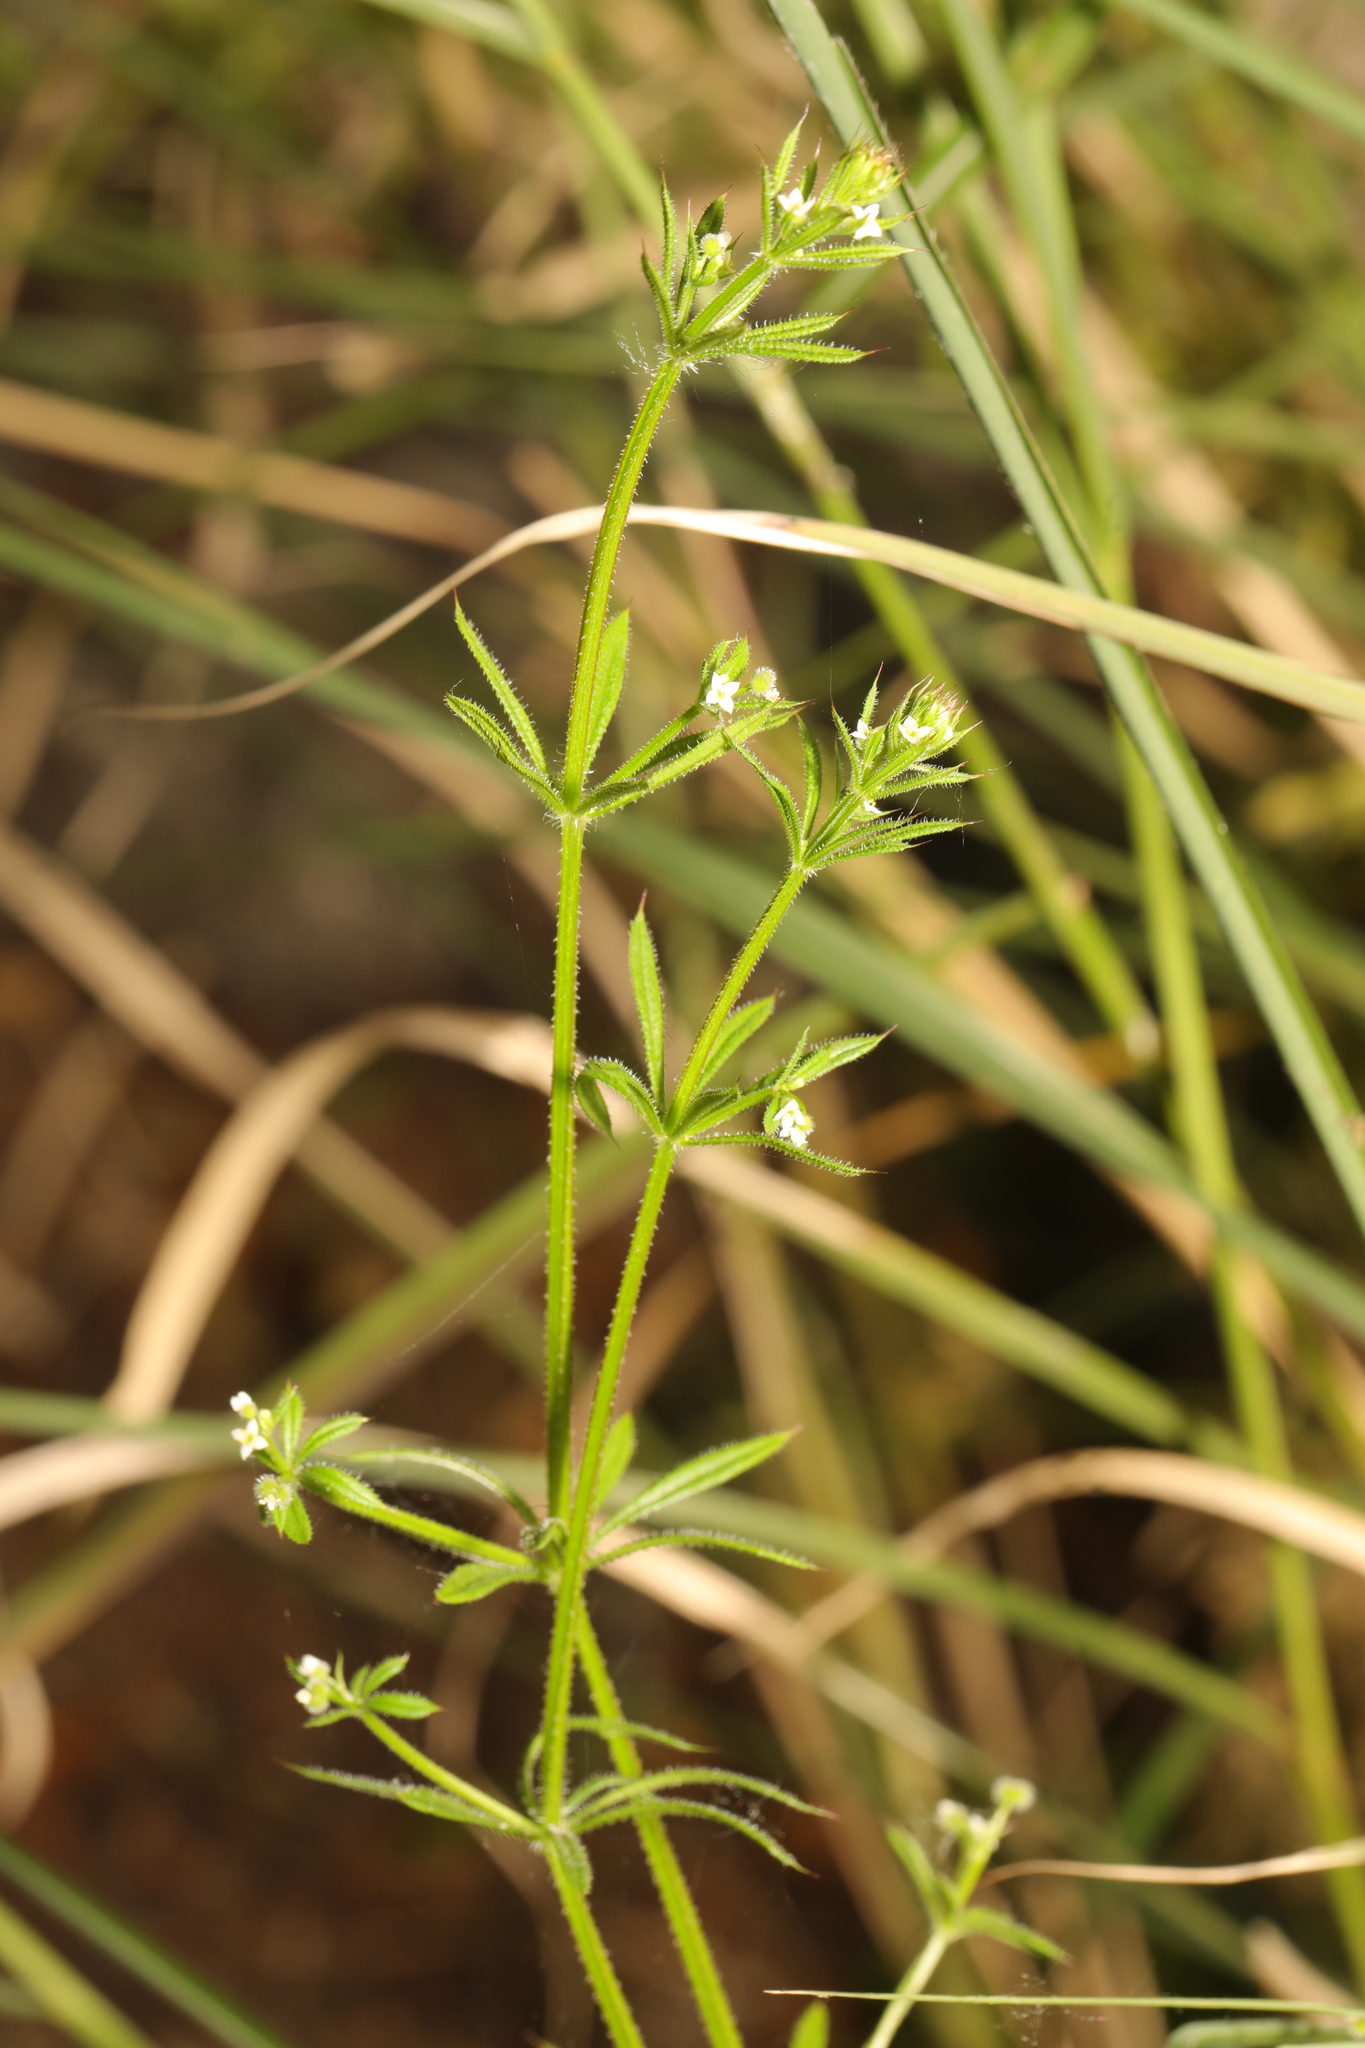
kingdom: Plantae
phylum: Tracheophyta
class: Magnoliopsida
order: Gentianales
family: Rubiaceae
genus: Galium
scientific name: Galium aparine
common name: Cleavers
